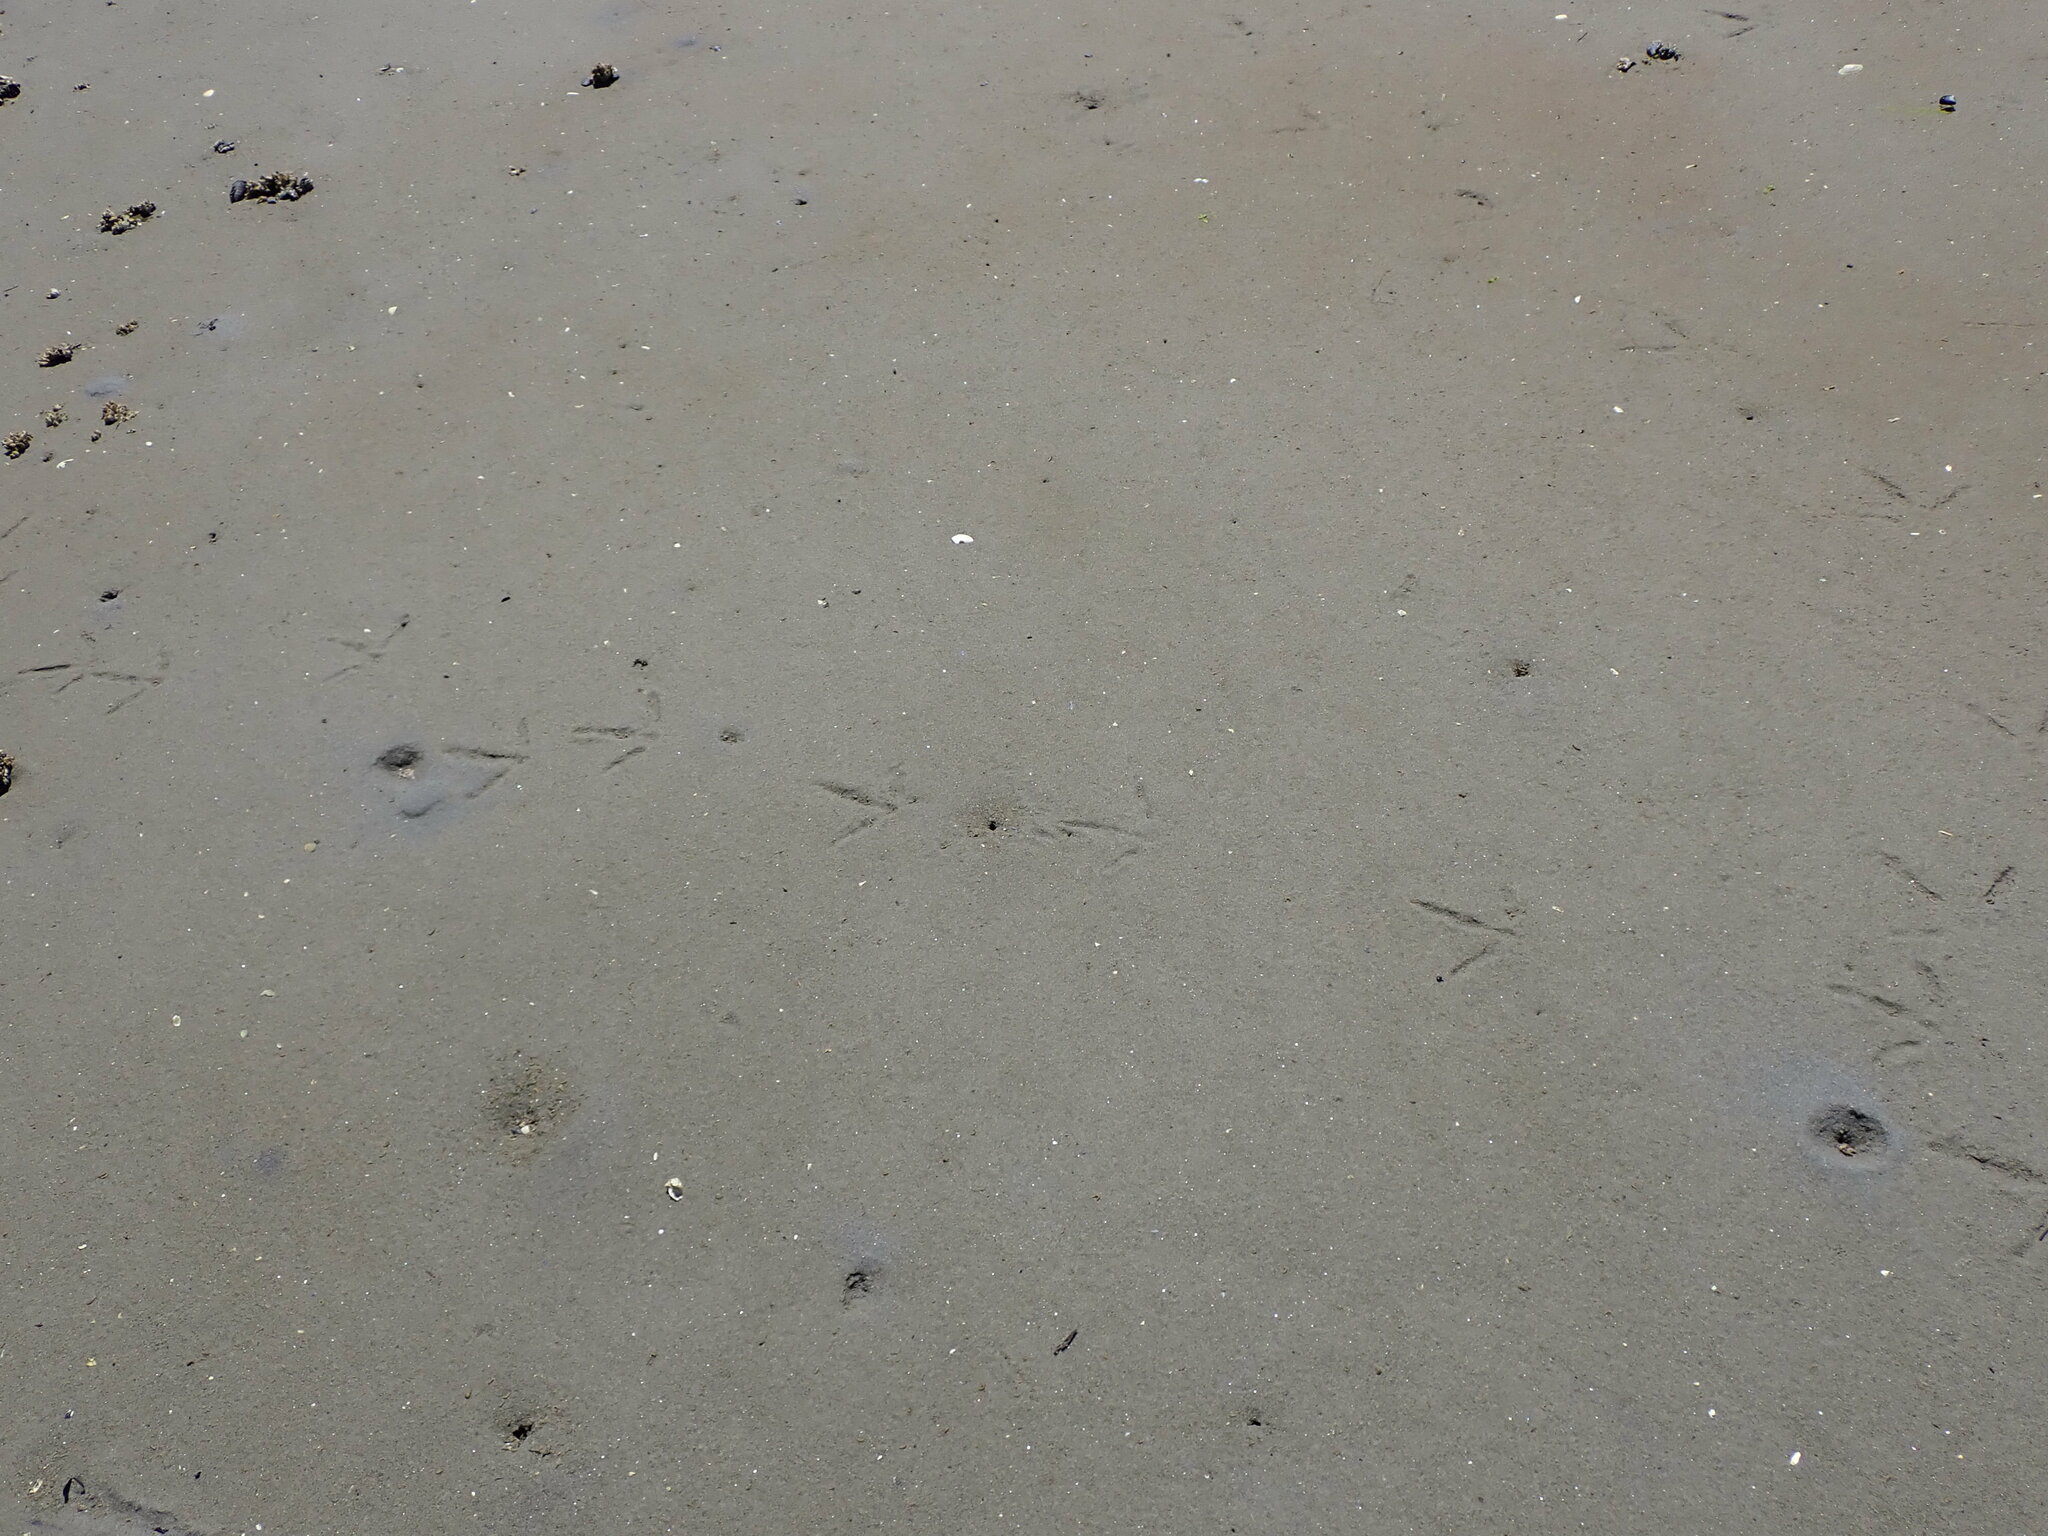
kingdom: Animalia
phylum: Chordata
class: Aves
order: Gruiformes
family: Gruidae
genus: Grus
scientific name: Grus canadensis
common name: Sandhill crane
